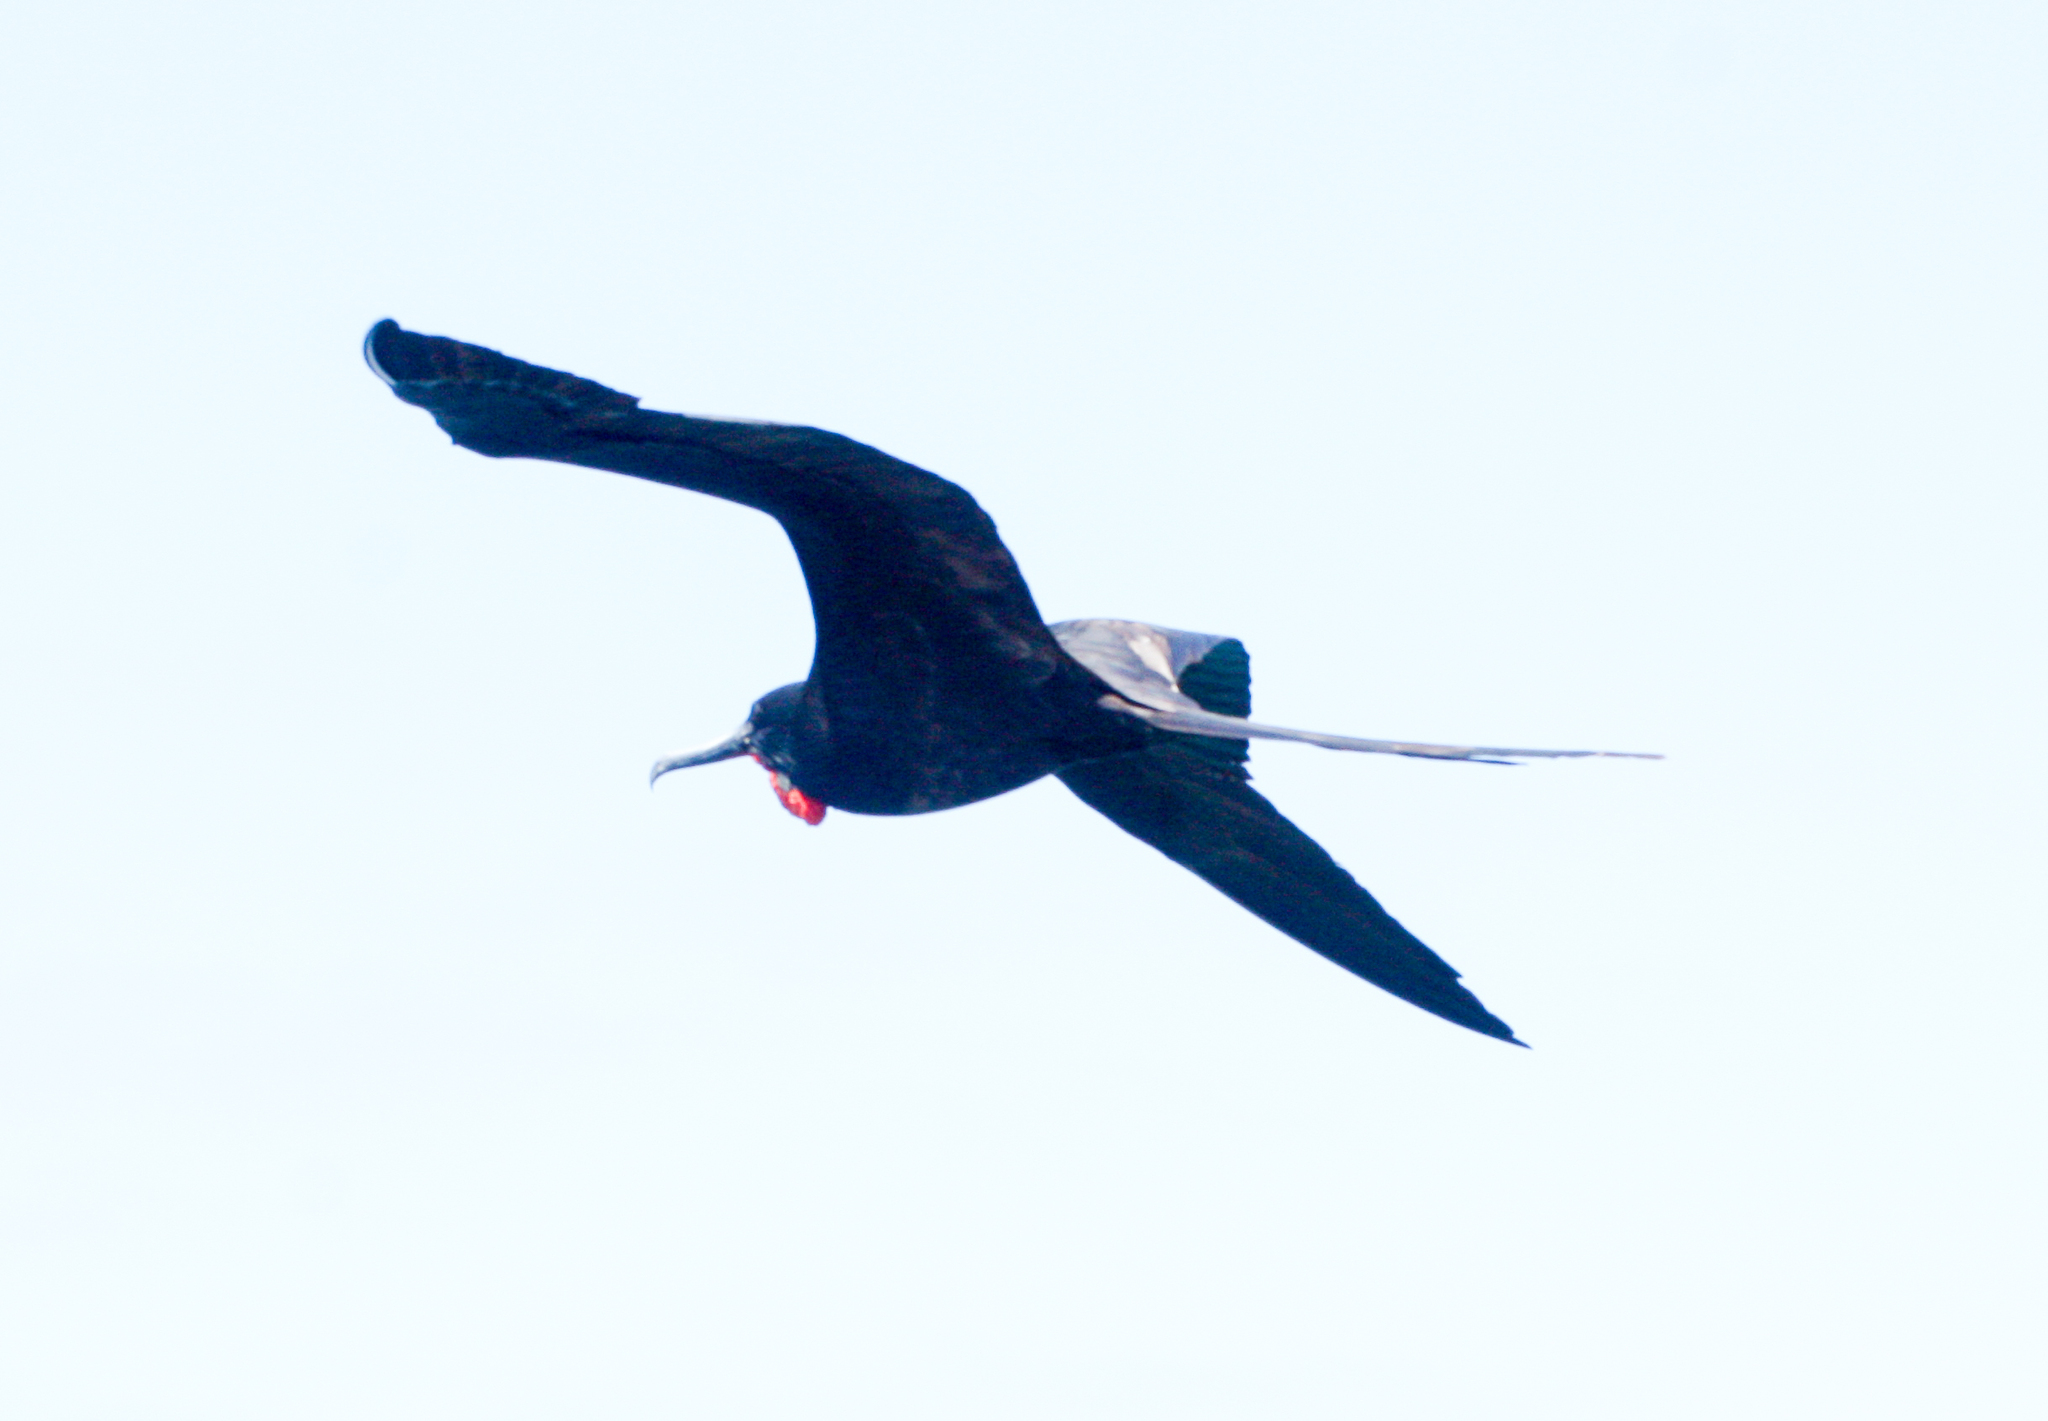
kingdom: Animalia
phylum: Chordata
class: Aves
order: Suliformes
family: Fregatidae
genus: Fregata
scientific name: Fregata magnificens
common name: Magnificent frigatebird
